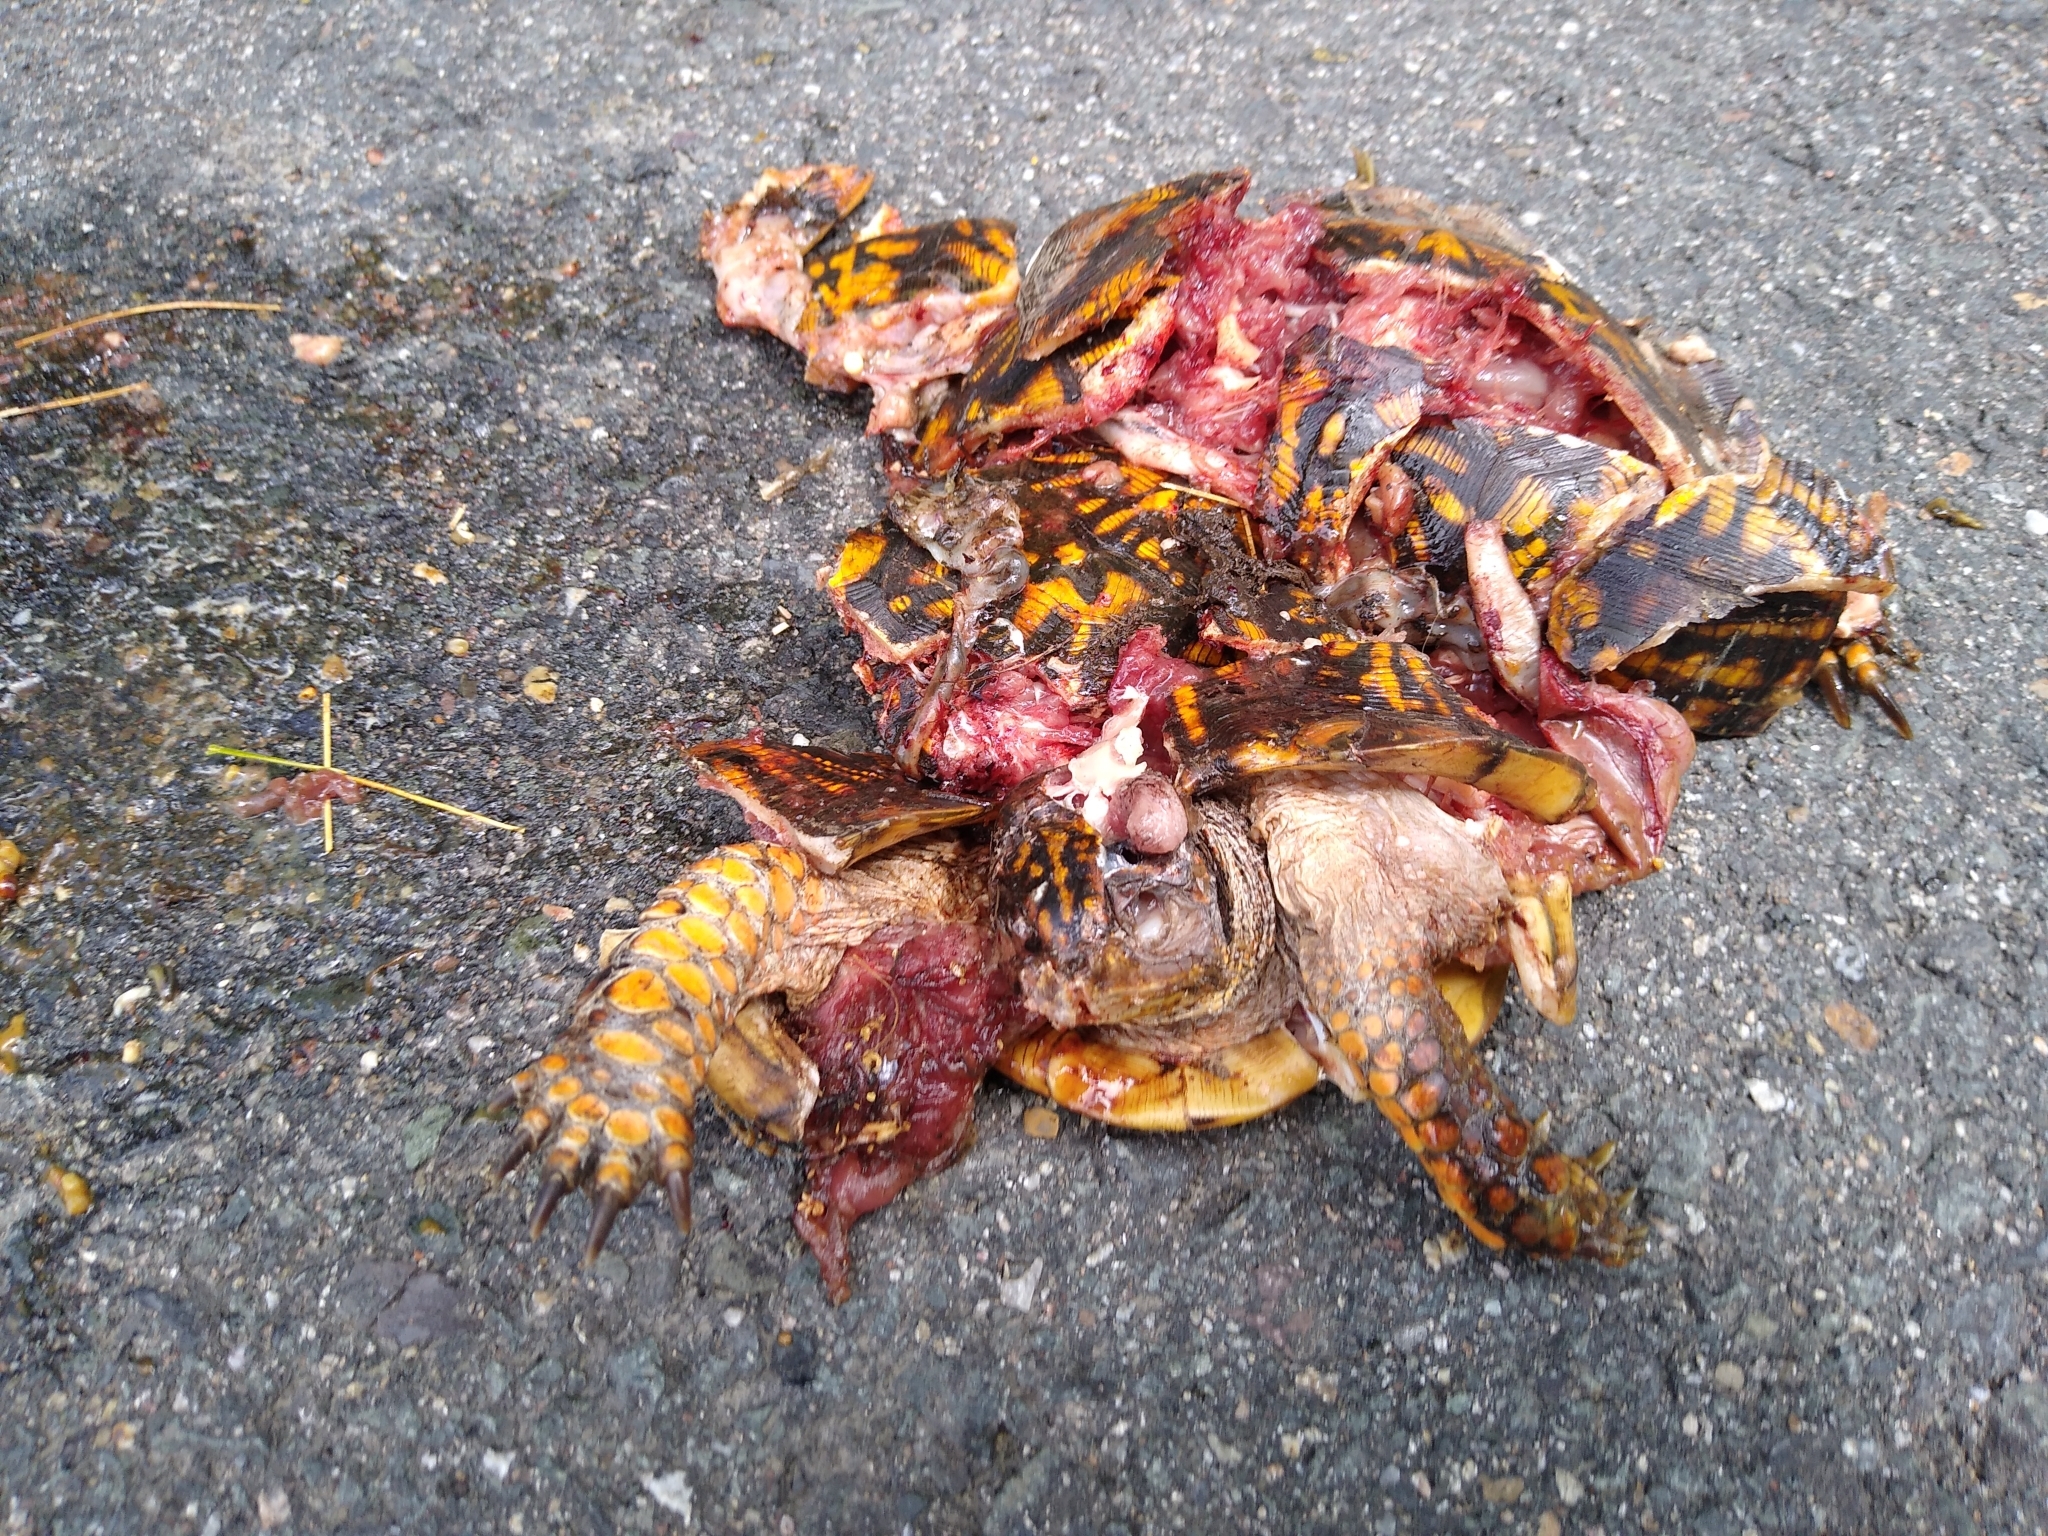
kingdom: Animalia
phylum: Chordata
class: Testudines
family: Emydidae
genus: Terrapene
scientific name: Terrapene carolina
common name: Common box turtle
